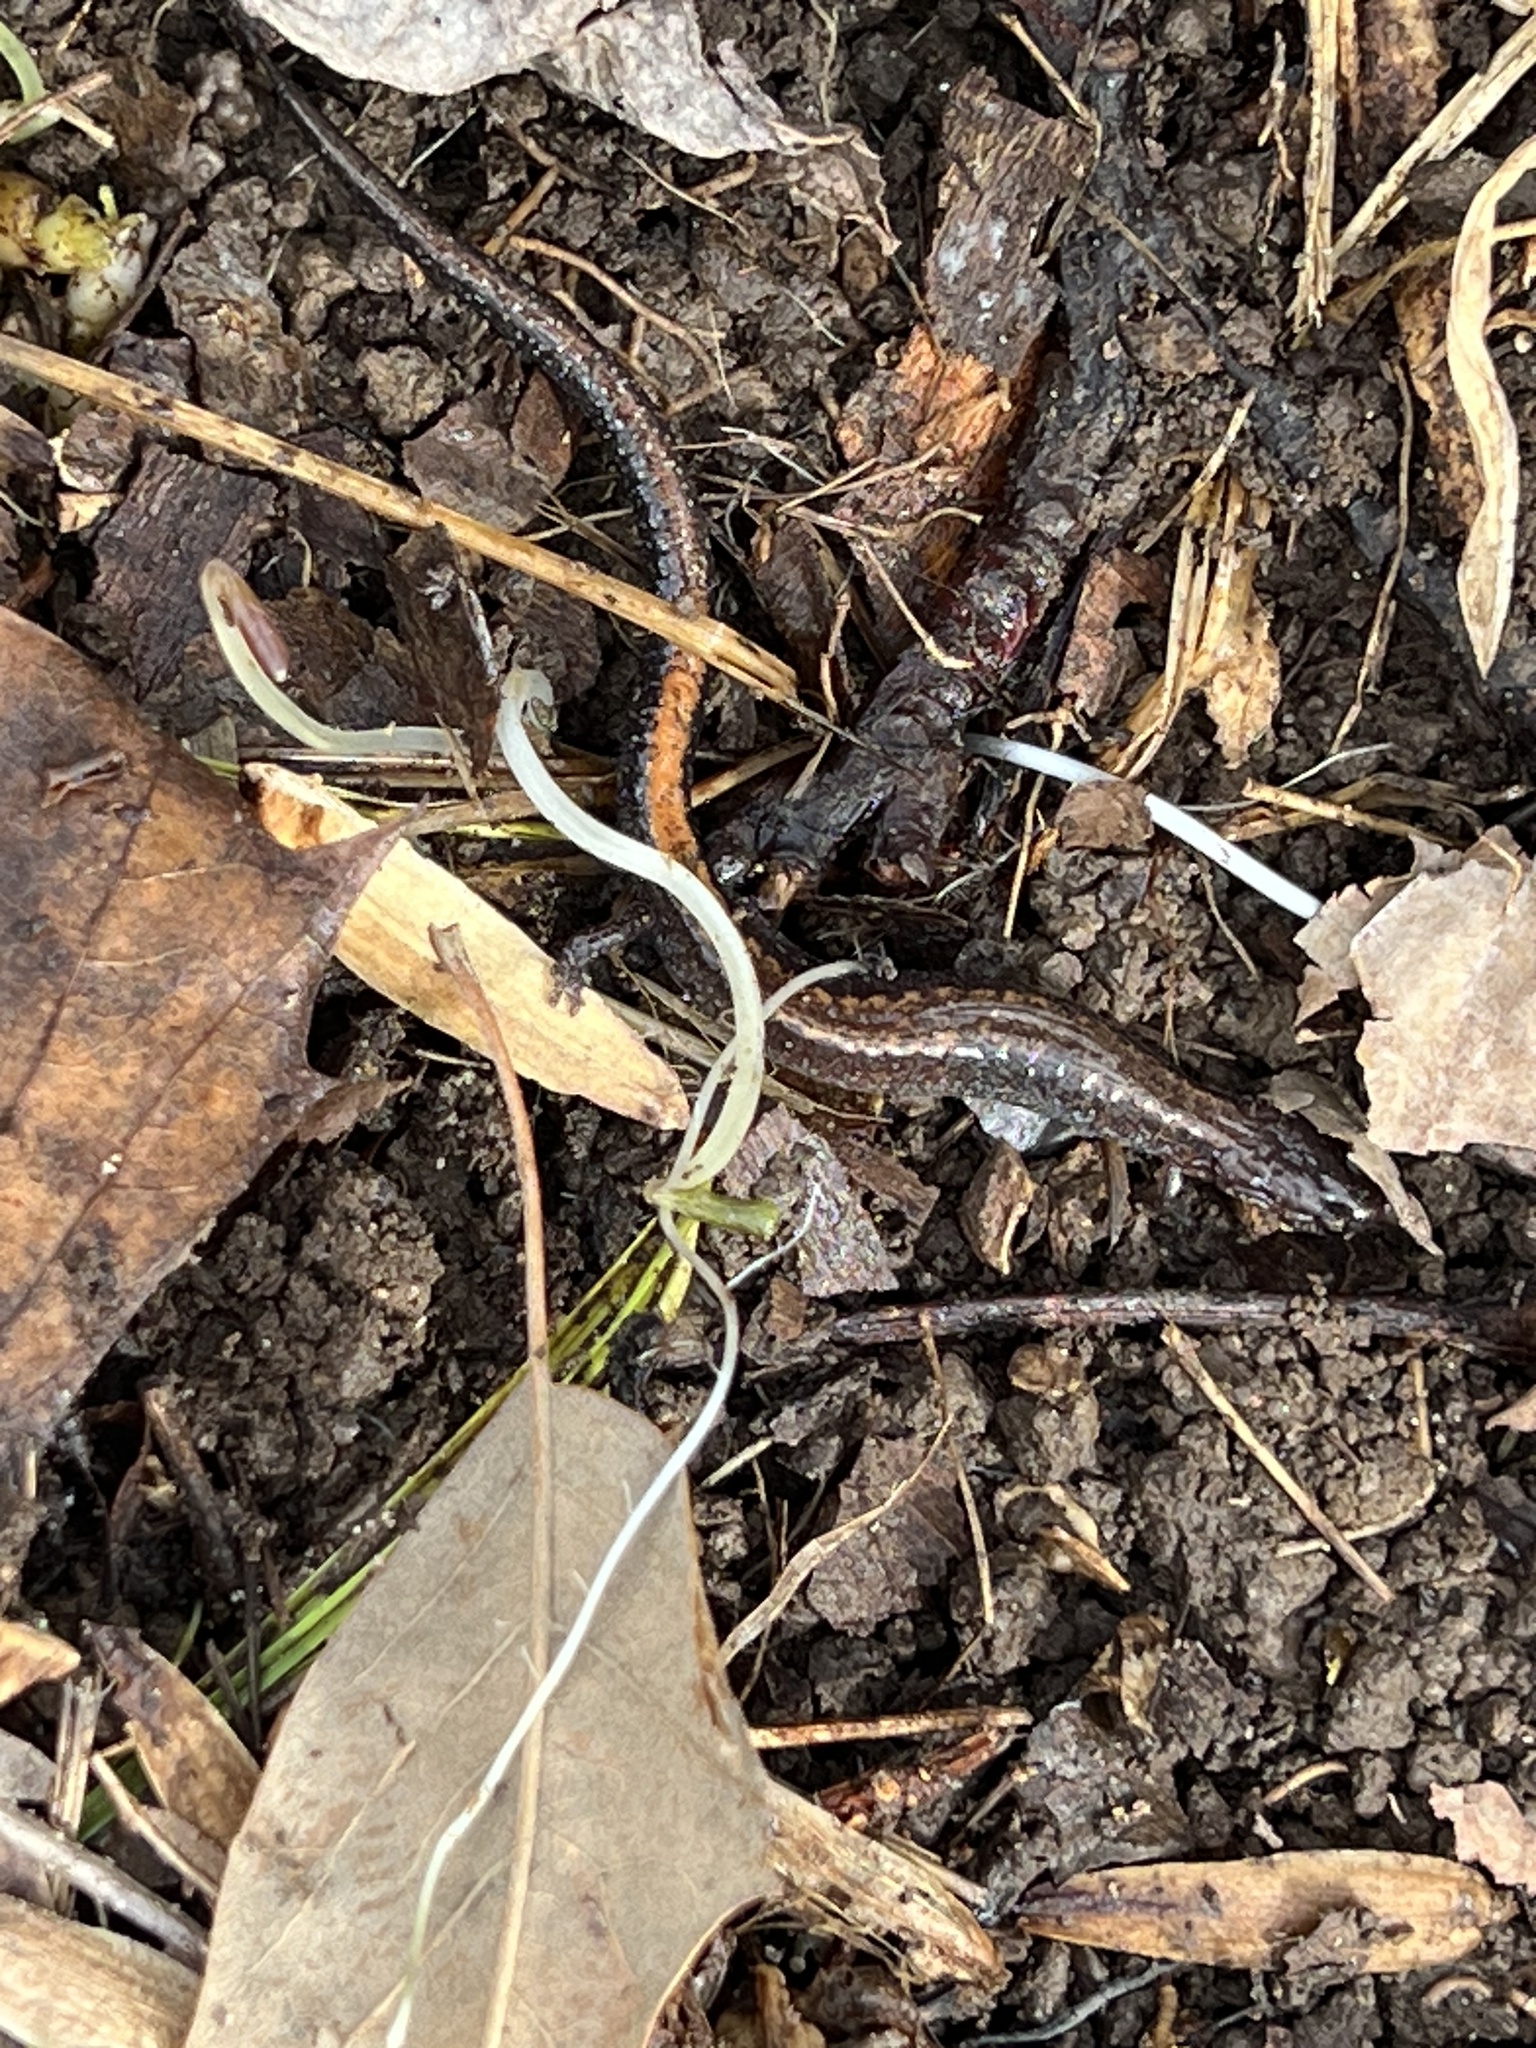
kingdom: Animalia
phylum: Chordata
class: Amphibia
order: Caudata
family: Plethodontidae
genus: Plethodon
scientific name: Plethodon cinereus
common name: Redback salamander
